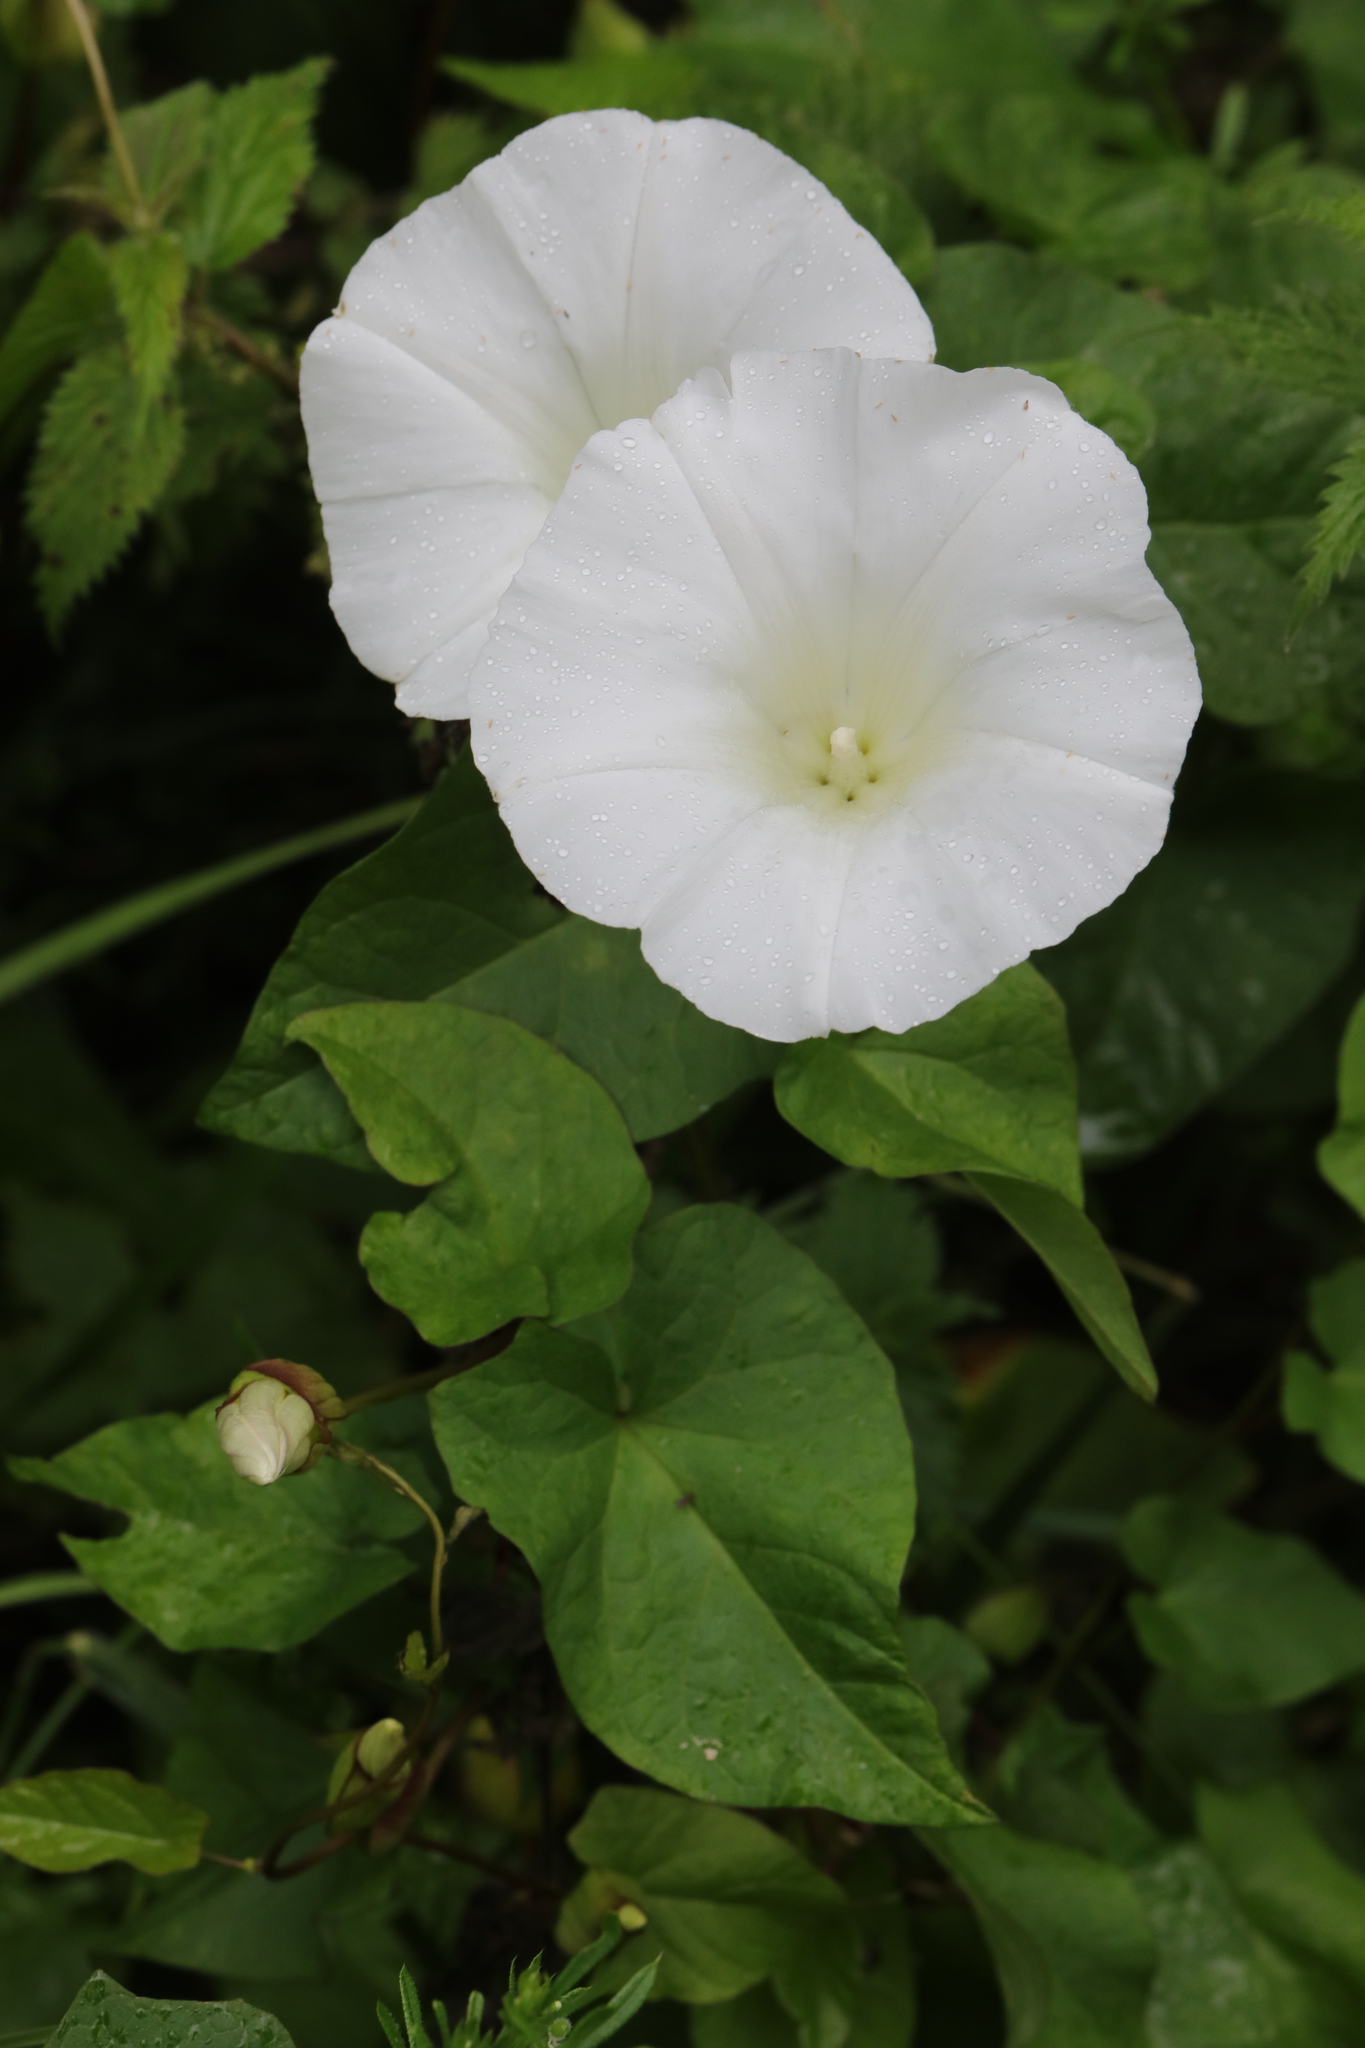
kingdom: Plantae
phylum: Tracheophyta
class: Magnoliopsida
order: Solanales
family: Convolvulaceae
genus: Calystegia
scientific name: Calystegia silvatica
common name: Large bindweed
